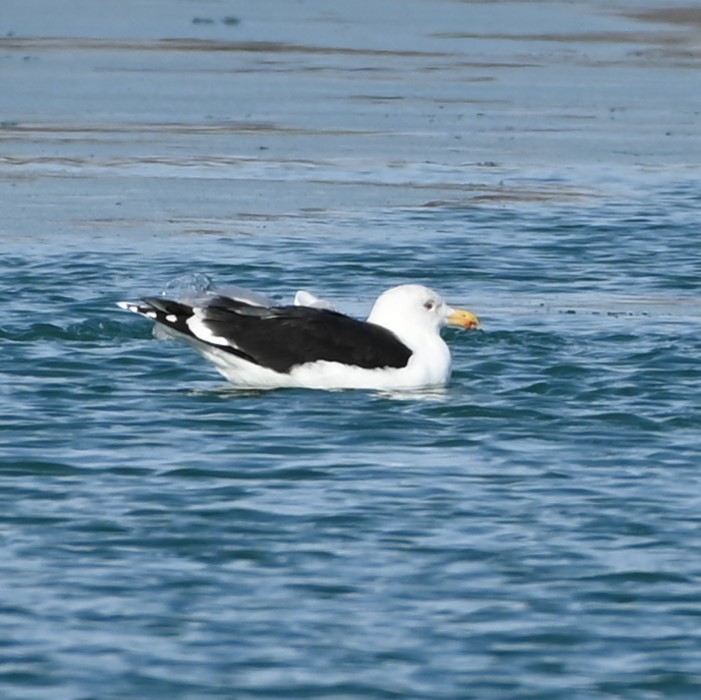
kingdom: Animalia
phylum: Chordata
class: Aves
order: Charadriiformes
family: Laridae
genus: Larus
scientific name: Larus marinus
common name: Great black-backed gull
